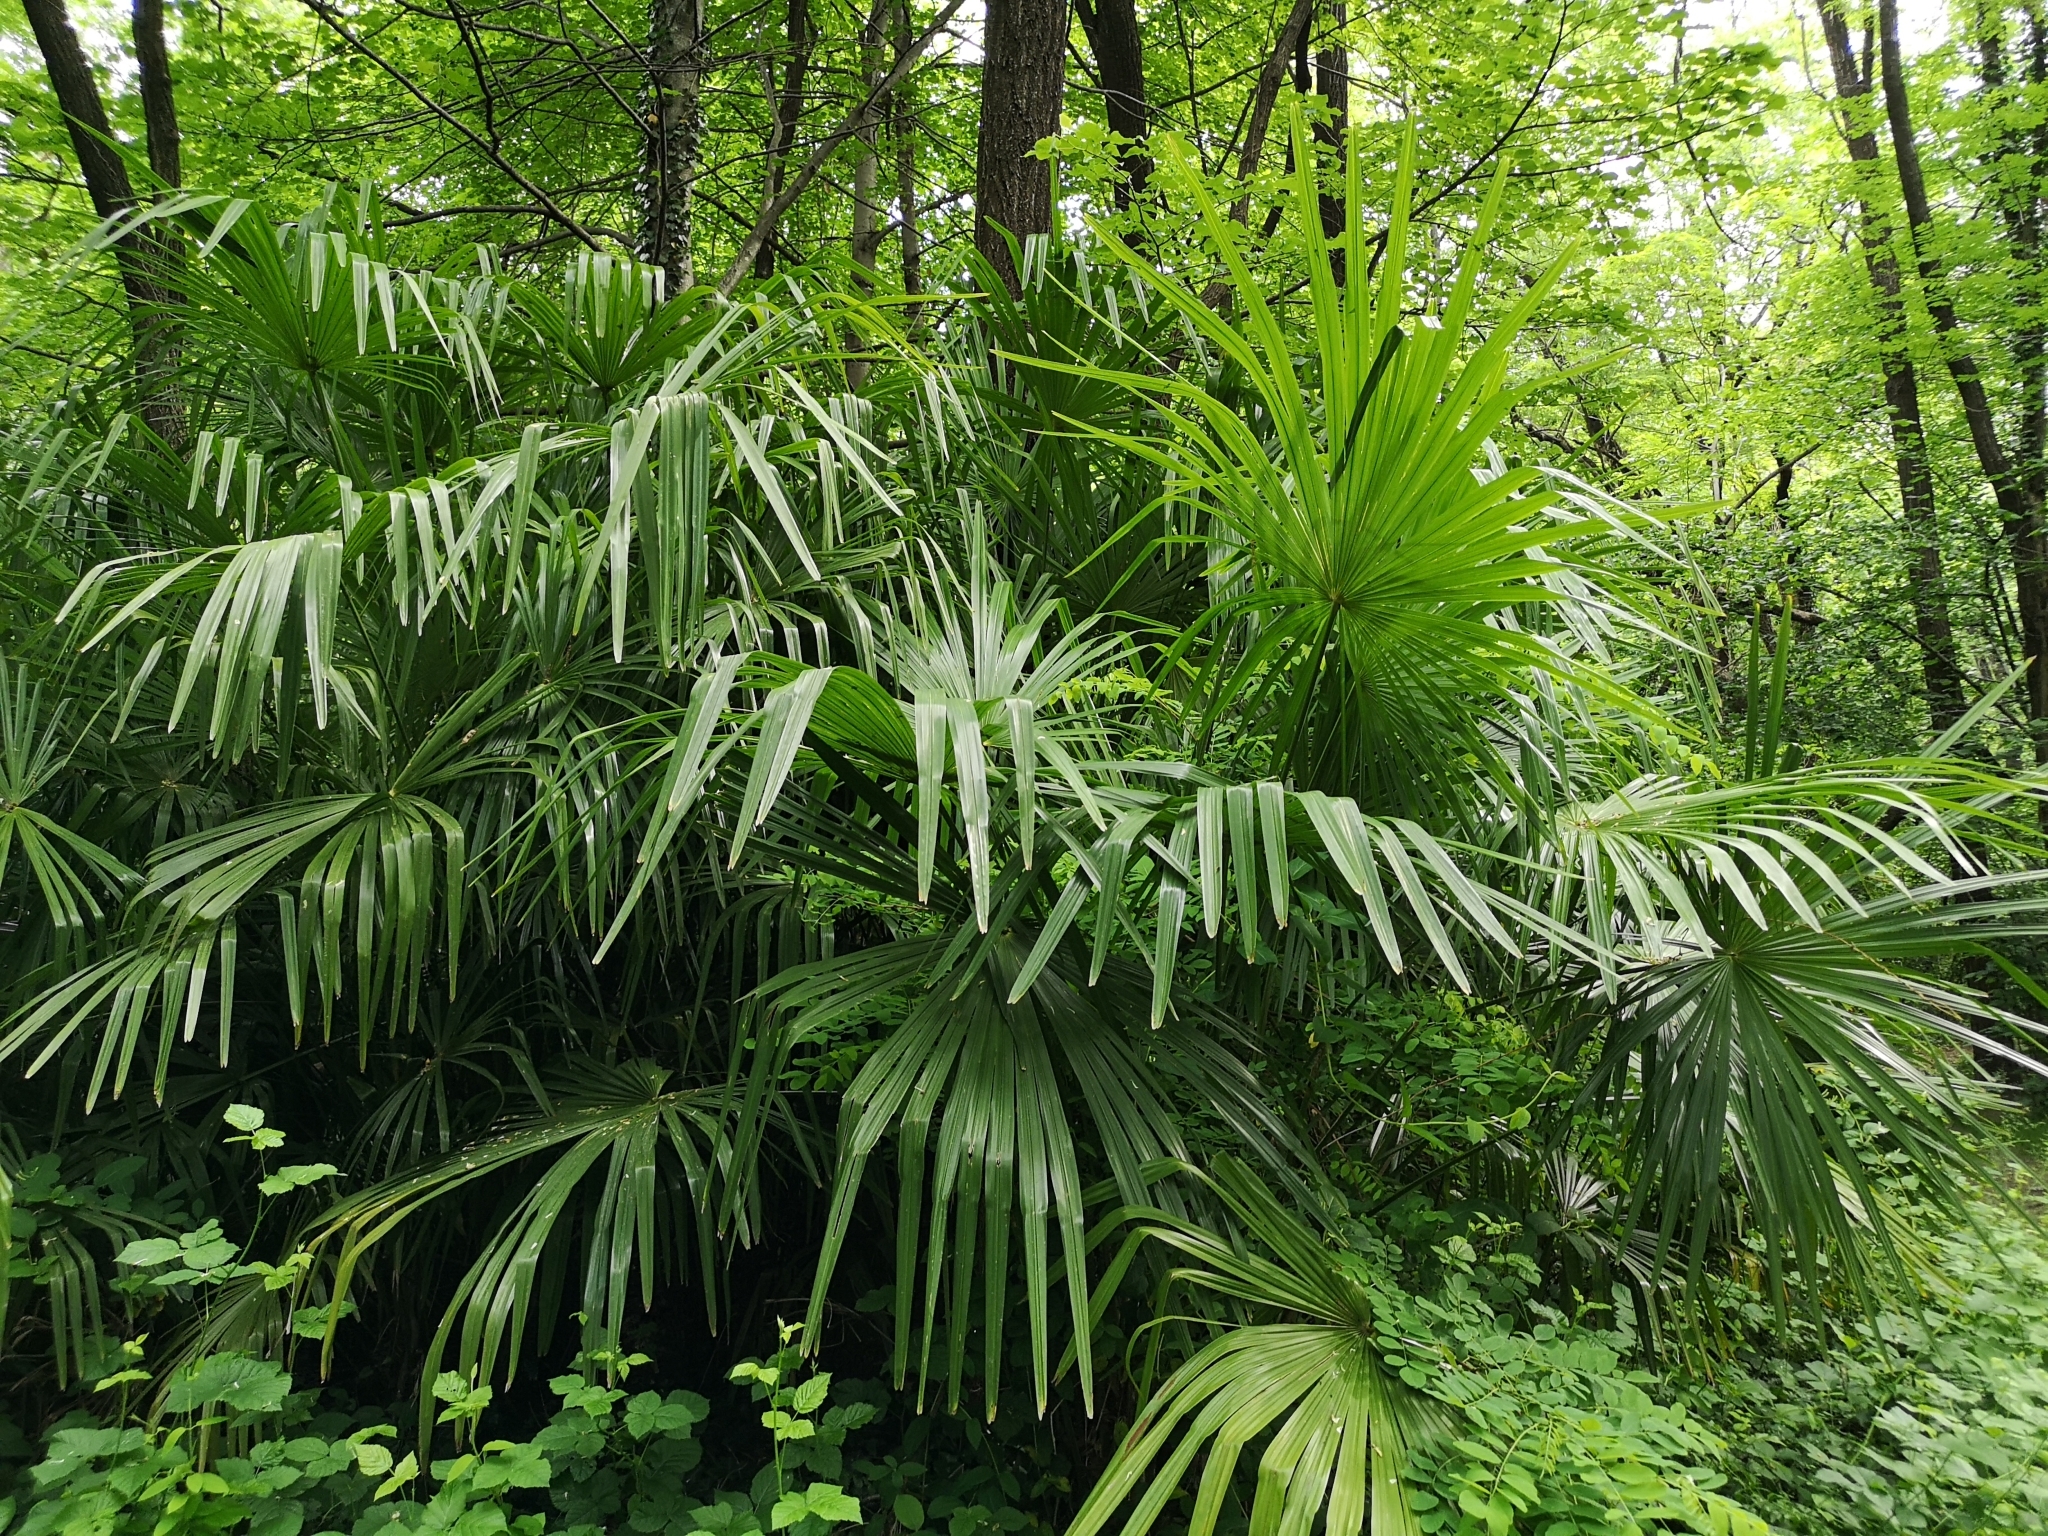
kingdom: Plantae
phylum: Tracheophyta
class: Liliopsida
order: Arecales
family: Arecaceae
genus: Trachycarpus
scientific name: Trachycarpus fortunei
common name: Chusan palm
